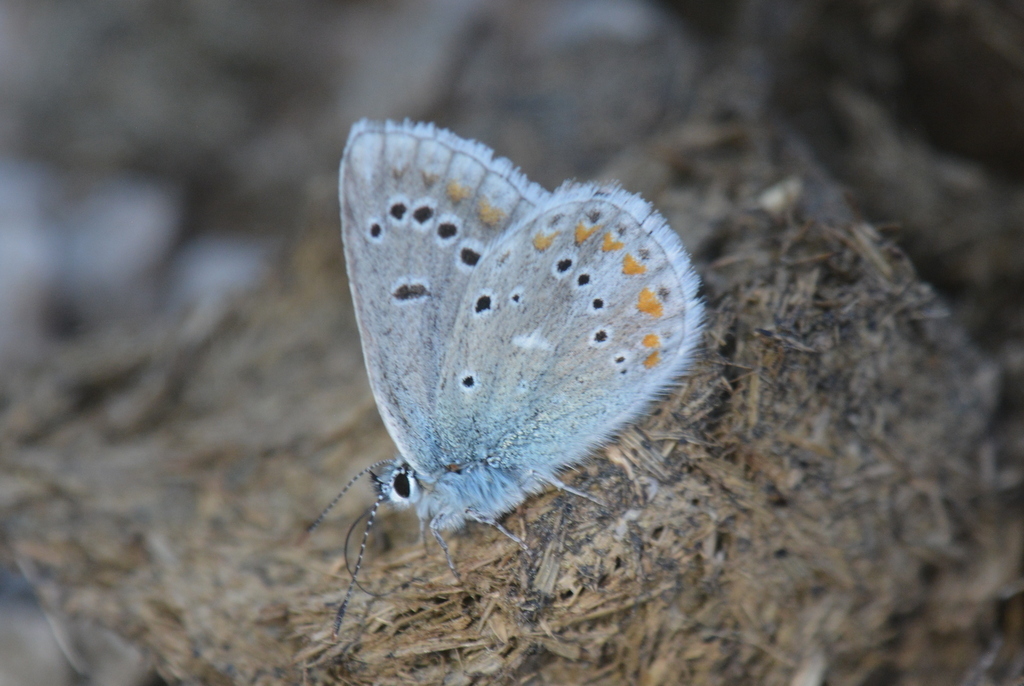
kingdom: Animalia
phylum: Arthropoda
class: Insecta
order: Lepidoptera
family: Lycaenidae
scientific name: Lycaenidae
